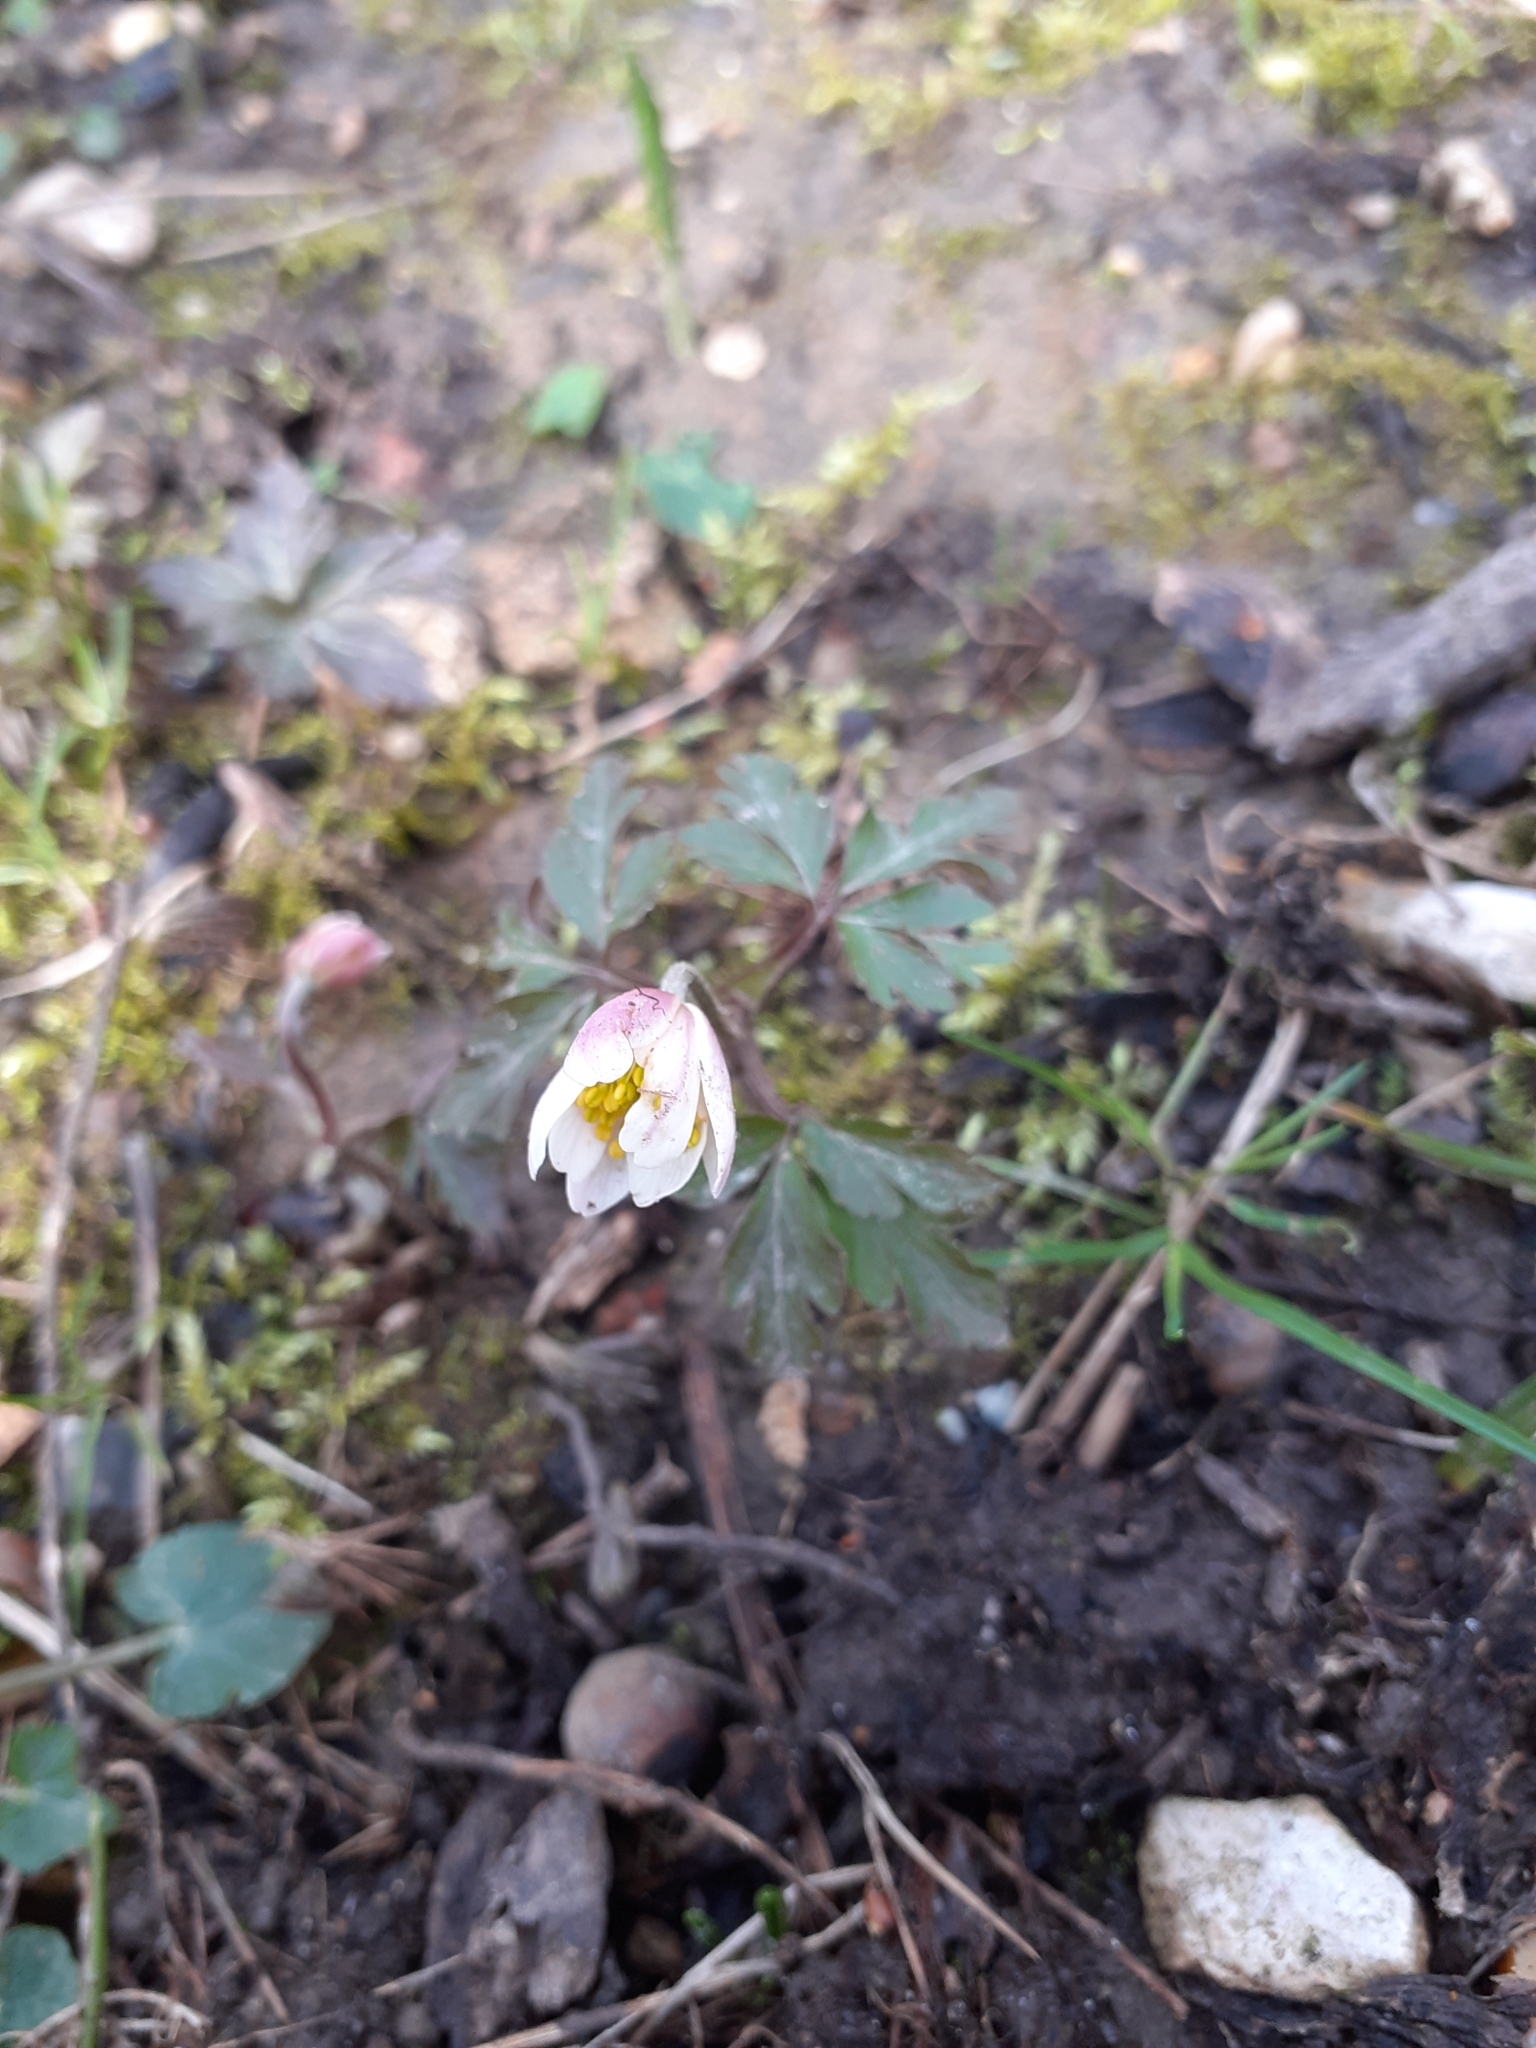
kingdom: Plantae
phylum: Tracheophyta
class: Magnoliopsida
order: Ranunculales
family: Ranunculaceae
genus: Anemone
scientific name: Anemone nemorosa
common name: Wood anemone
